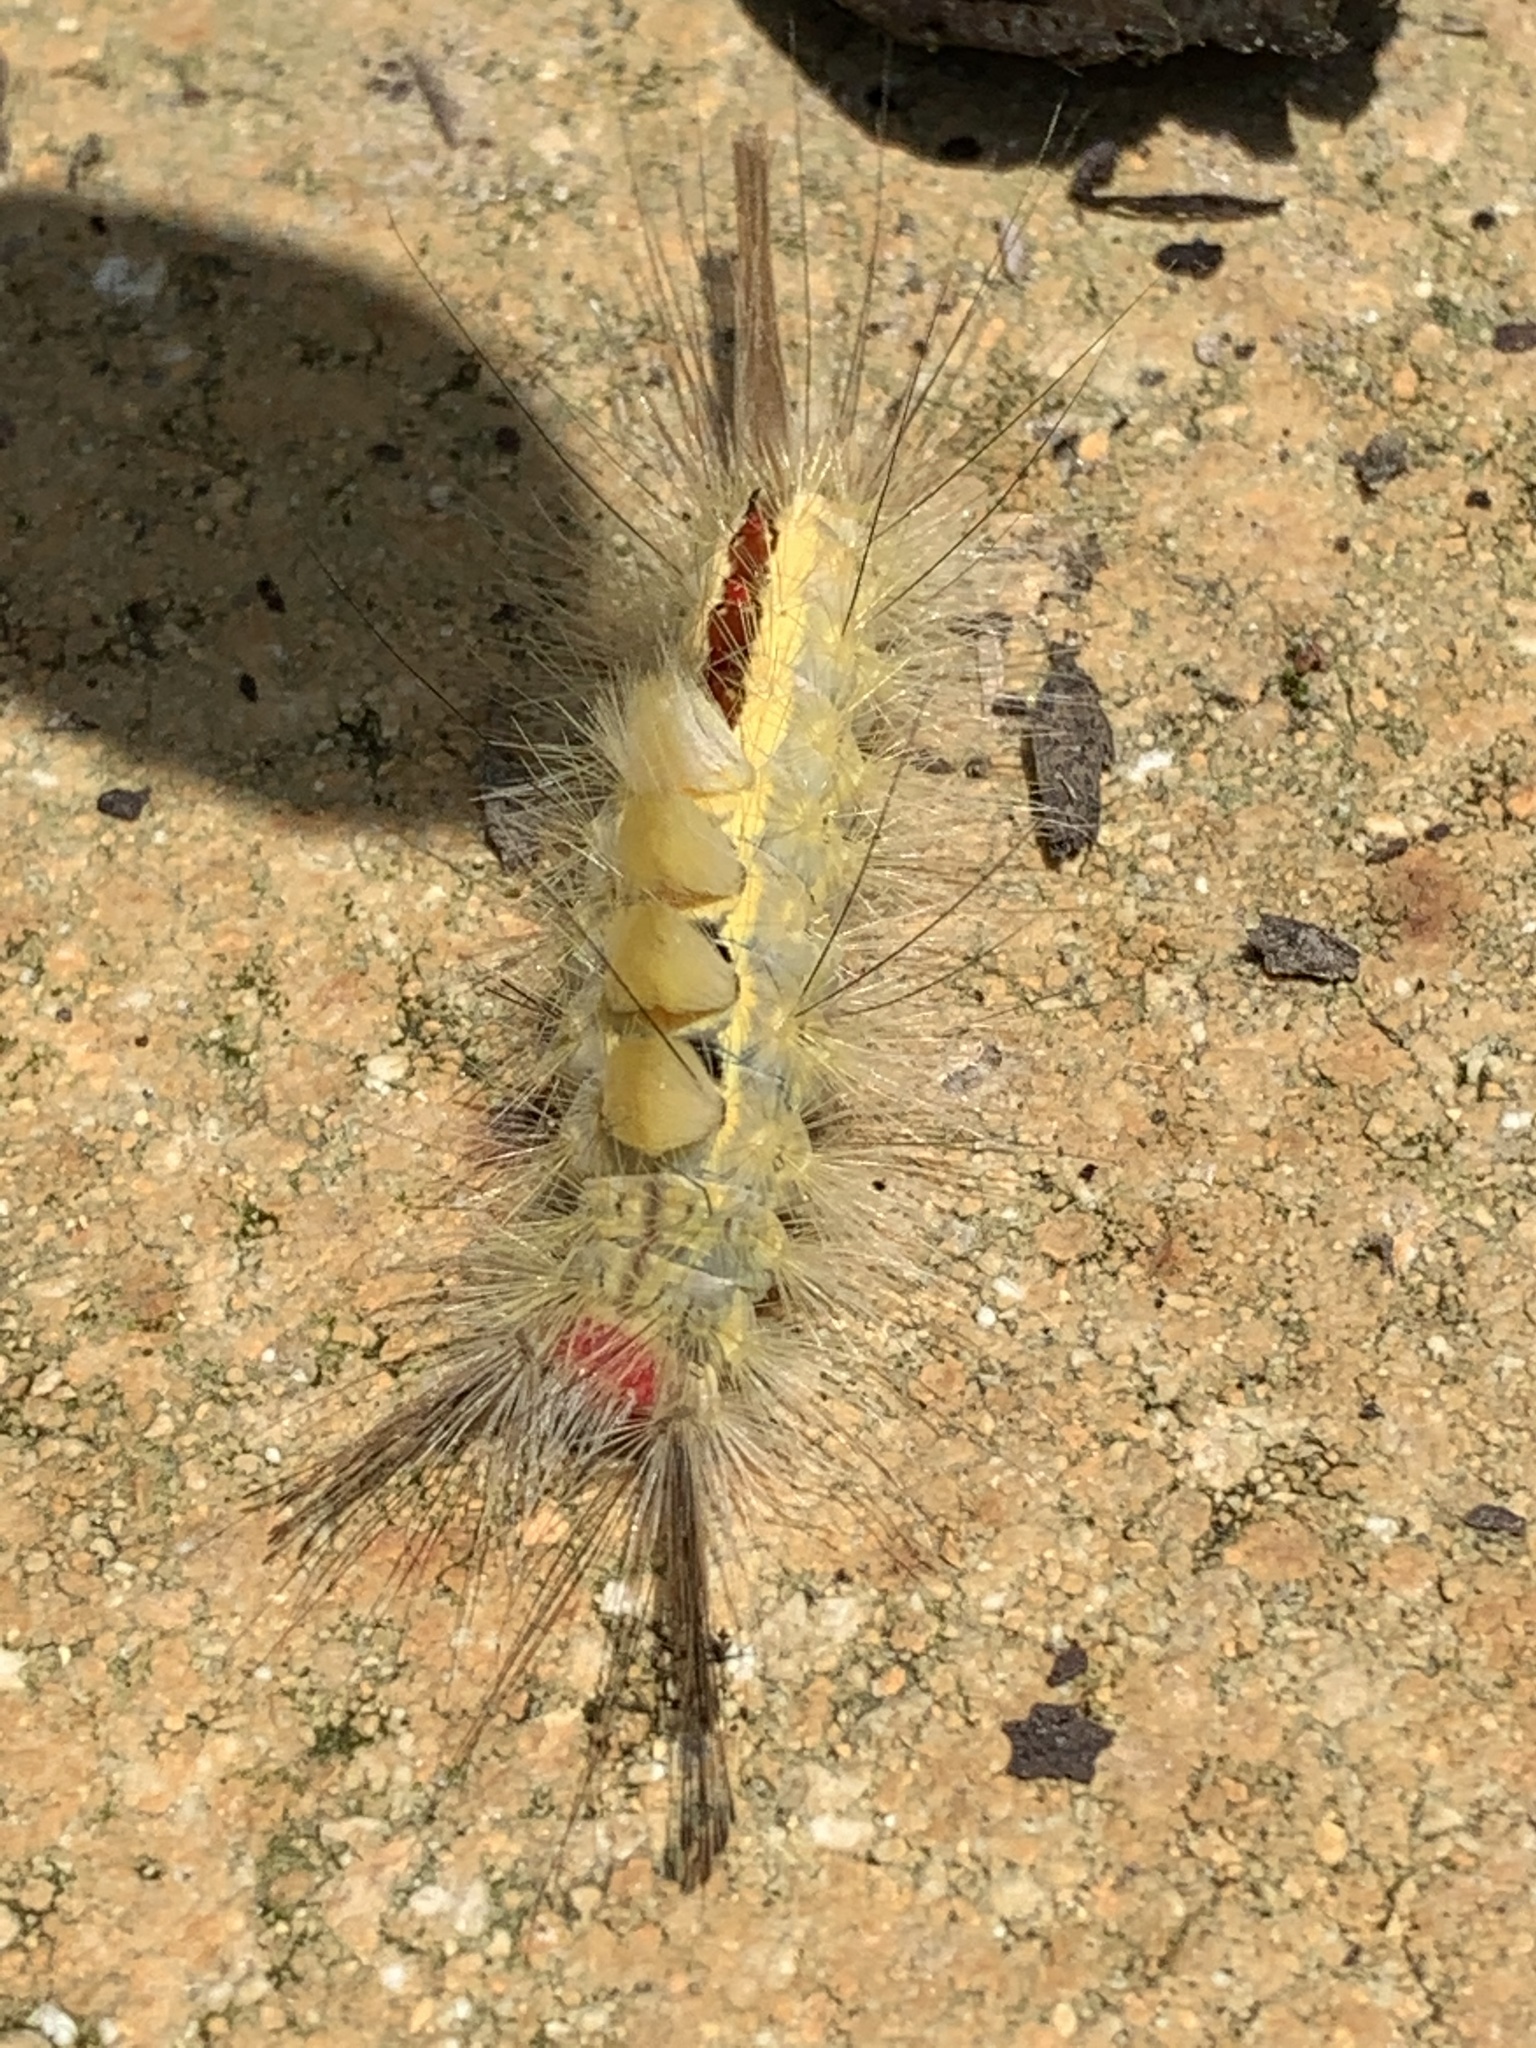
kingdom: Animalia
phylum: Arthropoda
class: Insecta
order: Lepidoptera
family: Erebidae
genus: Orgyia
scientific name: Orgyia leucostigma
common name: White-marked tussock moth
